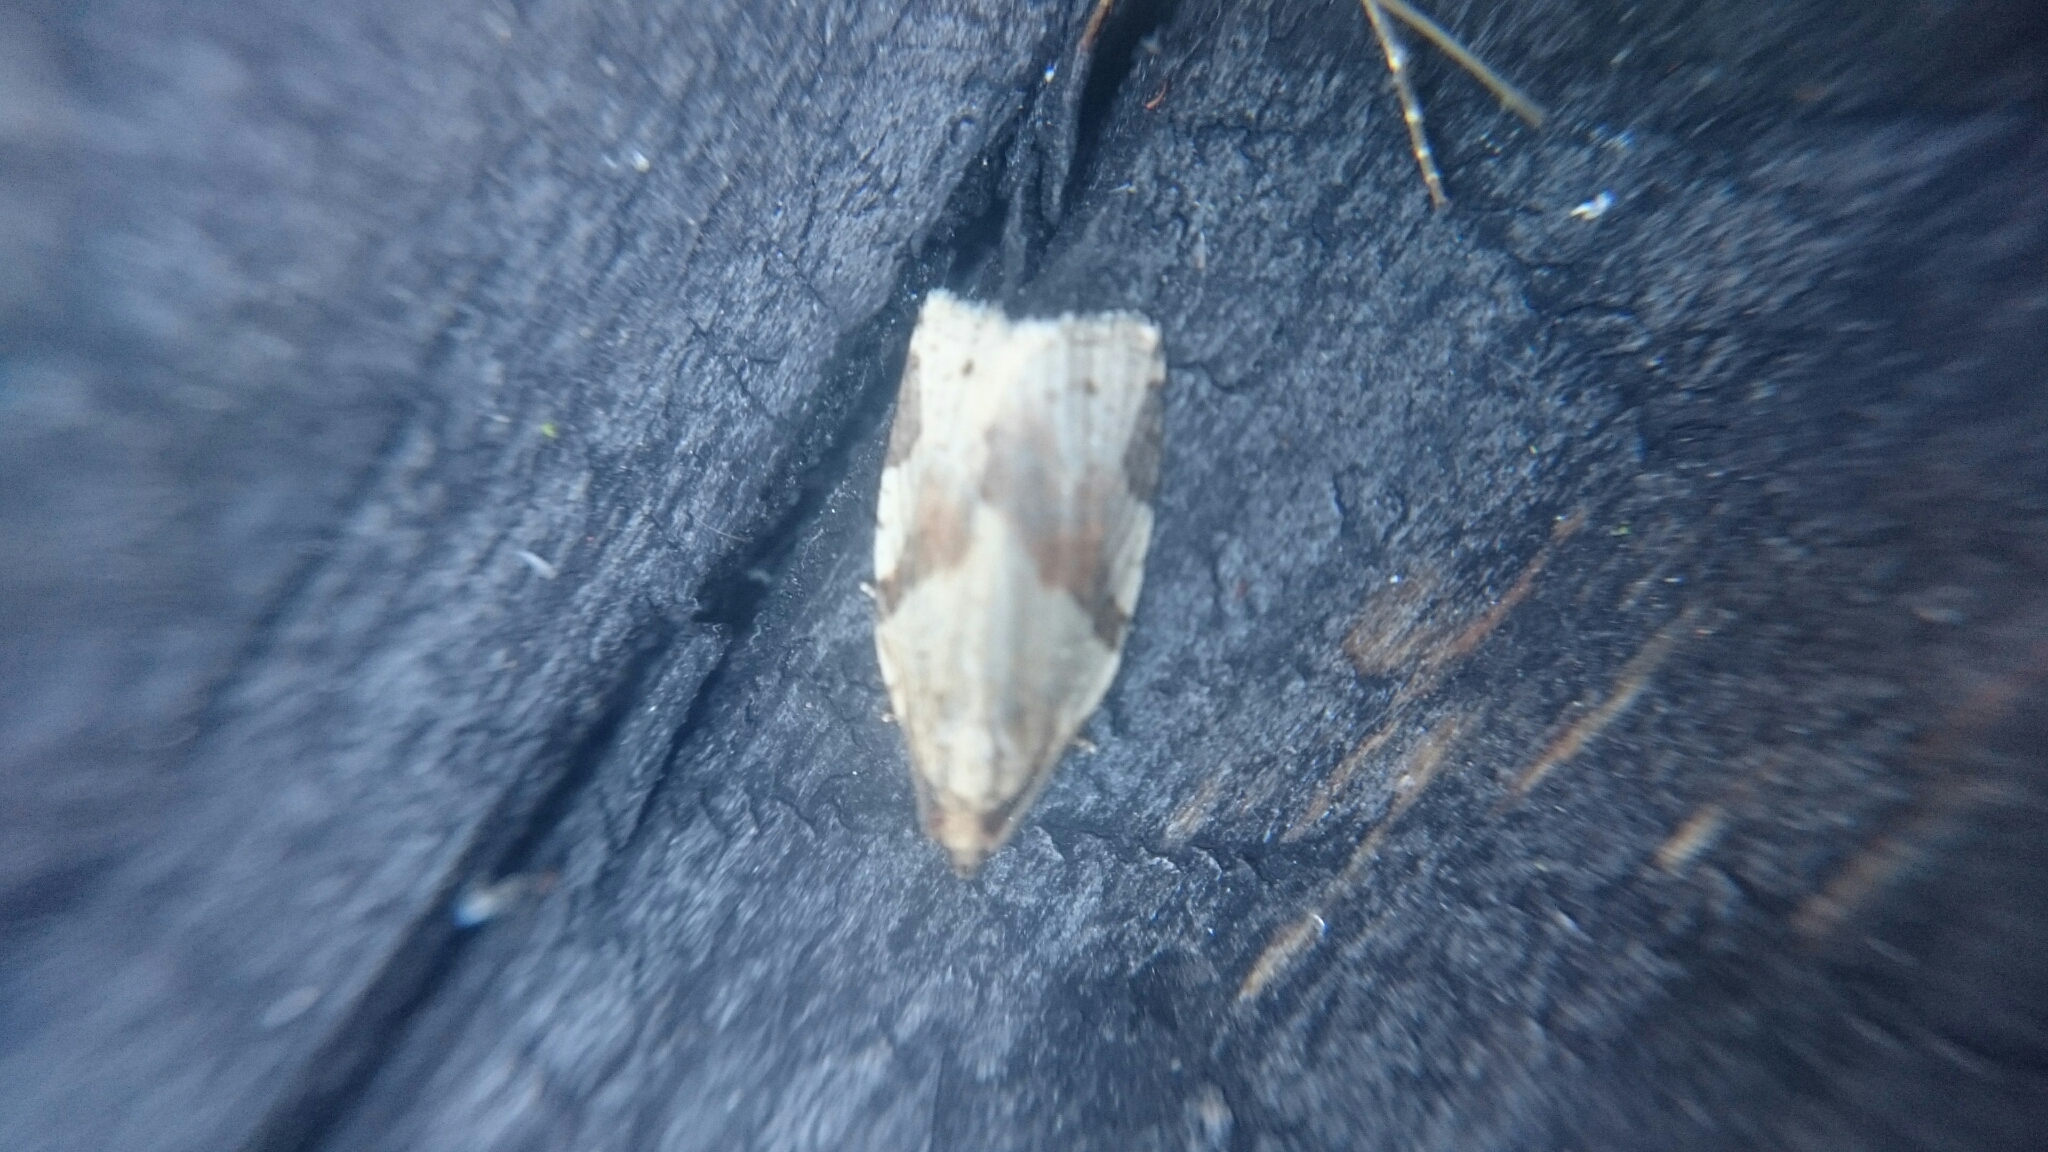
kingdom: Animalia
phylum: Arthropoda
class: Insecta
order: Lepidoptera
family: Tortricidae
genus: Clepsis
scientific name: Clepsis spectrana
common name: Cyclamen tortrix
